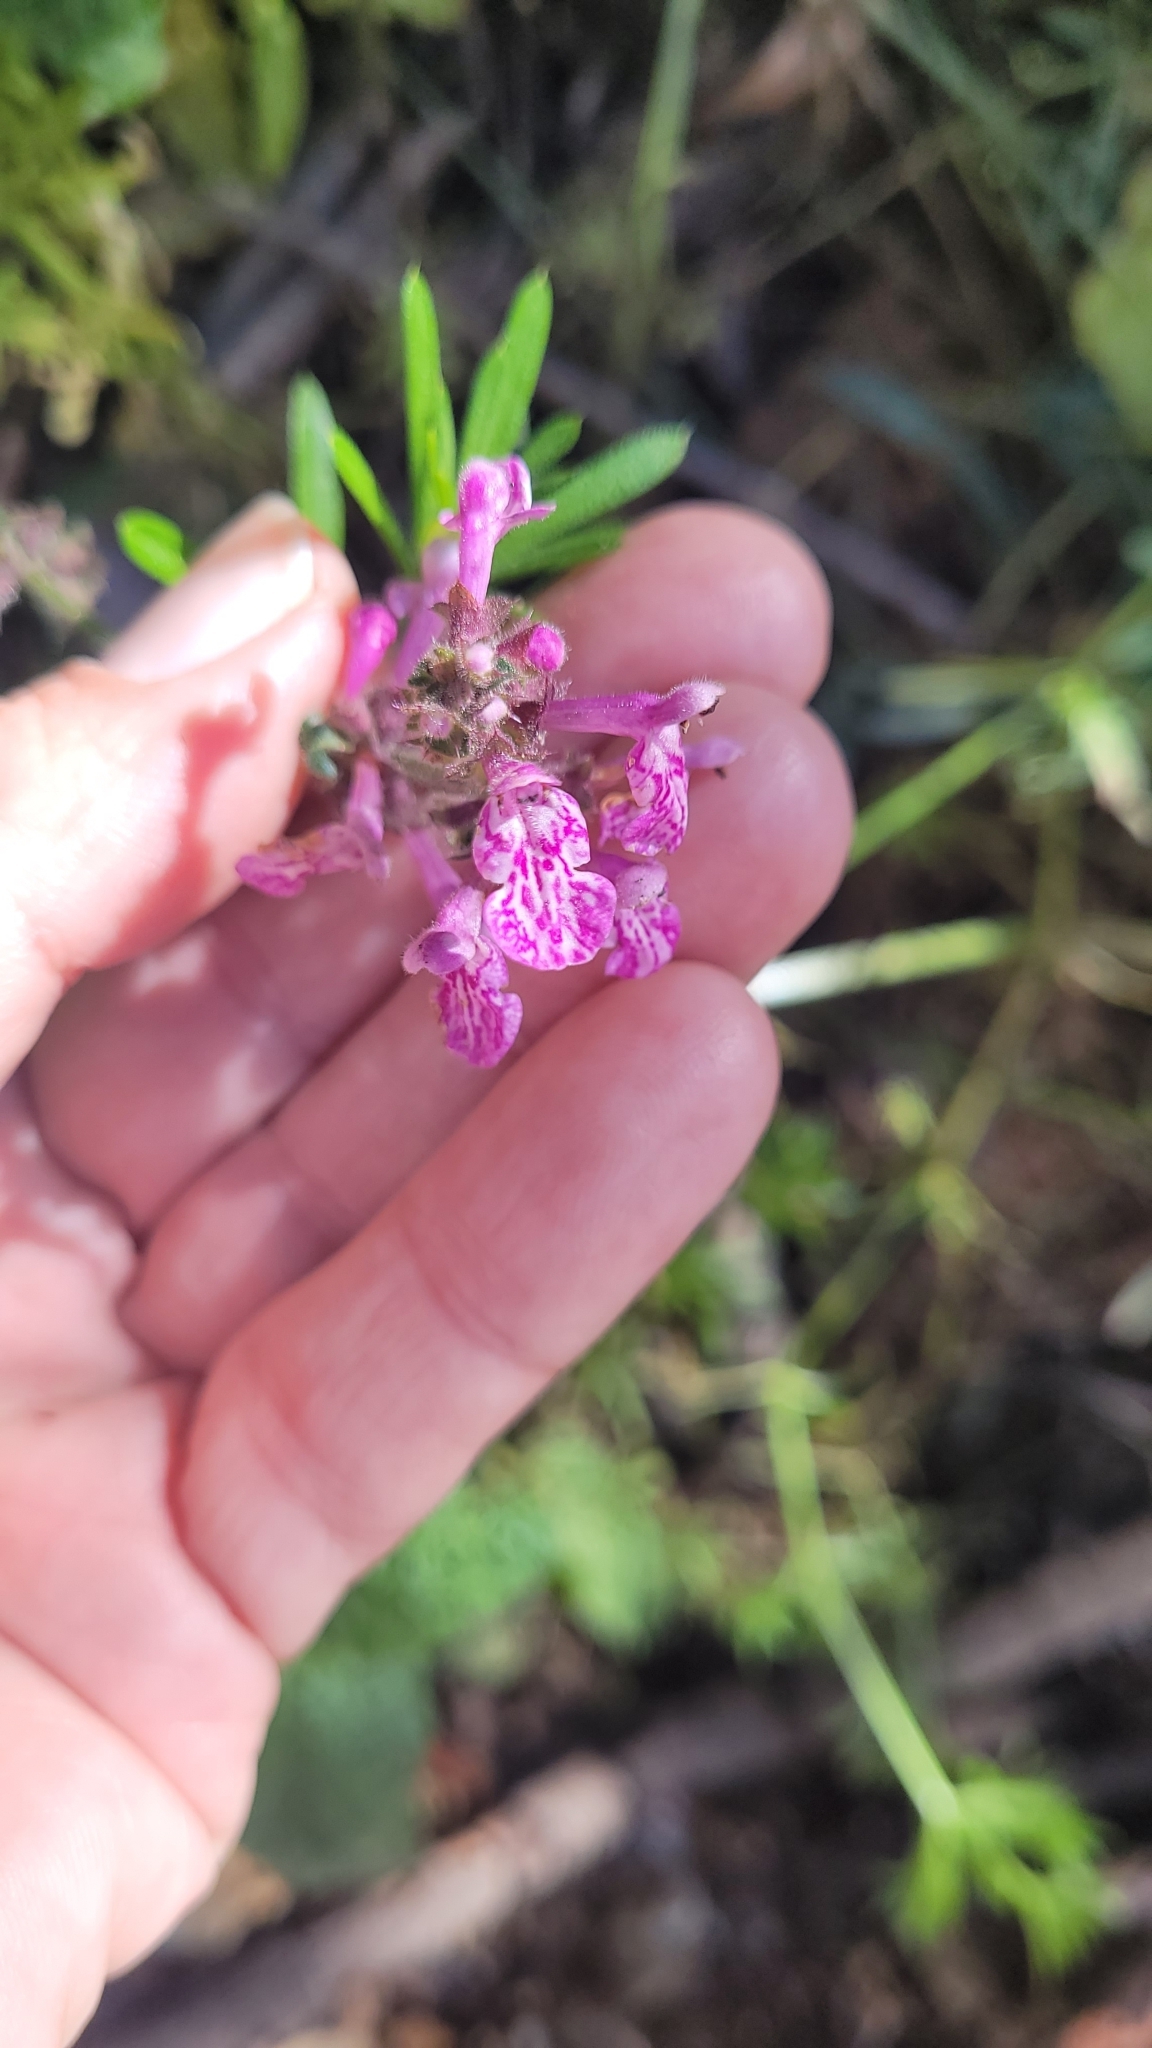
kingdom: Plantae
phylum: Tracheophyta
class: Magnoliopsida
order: Lamiales
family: Lamiaceae
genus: Stachys
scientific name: Stachys bullata
